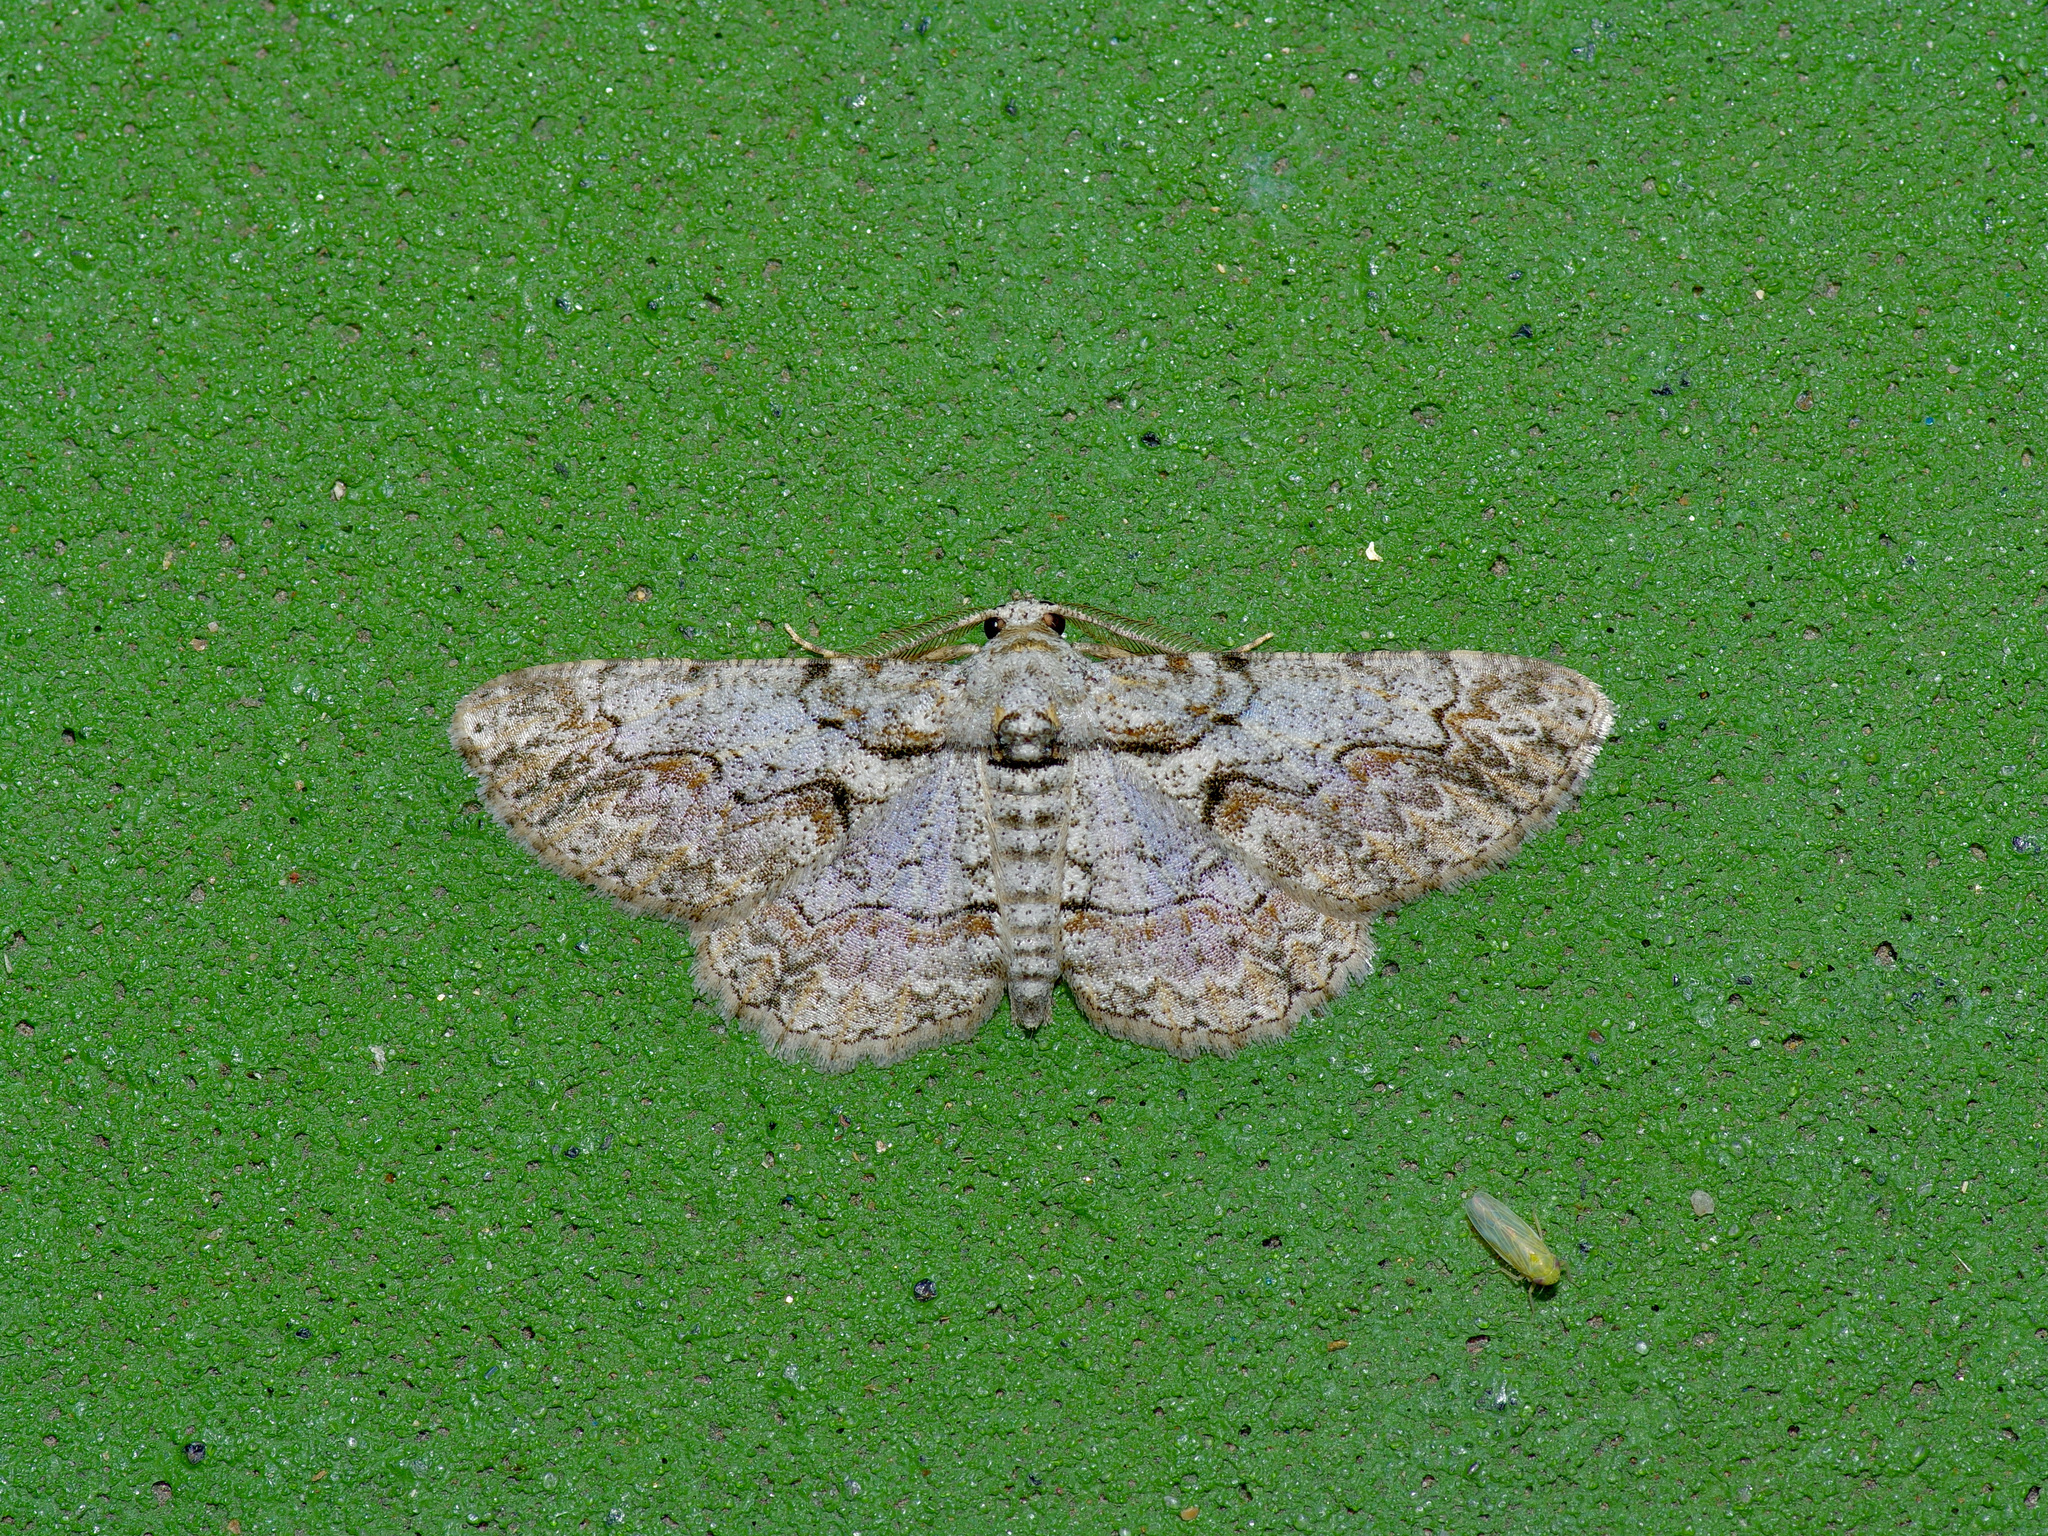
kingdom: Animalia
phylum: Arthropoda
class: Insecta
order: Lepidoptera
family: Geometridae
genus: Iridopsis
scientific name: Iridopsis defectaria
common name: Brown-shaded gray
